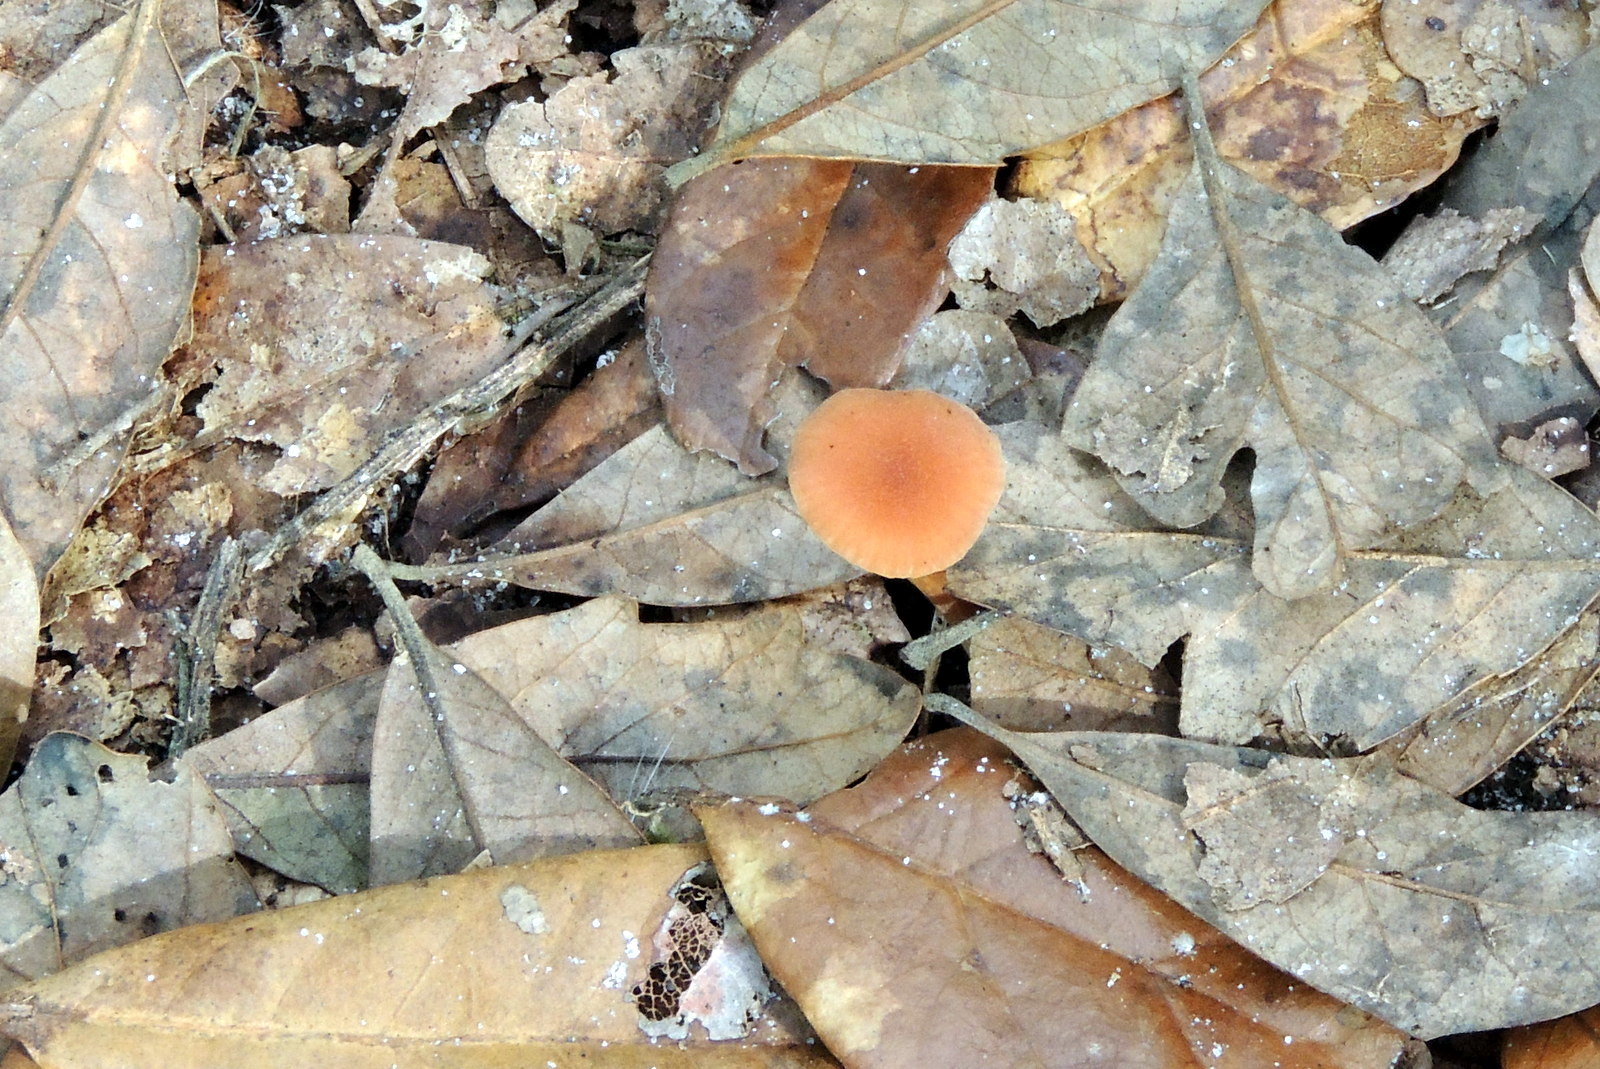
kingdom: Fungi
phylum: Basidiomycota
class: Agaricomycetes
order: Agaricales
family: Hydnangiaceae
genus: Laccaria
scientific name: Laccaria laccata
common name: Deceiver
